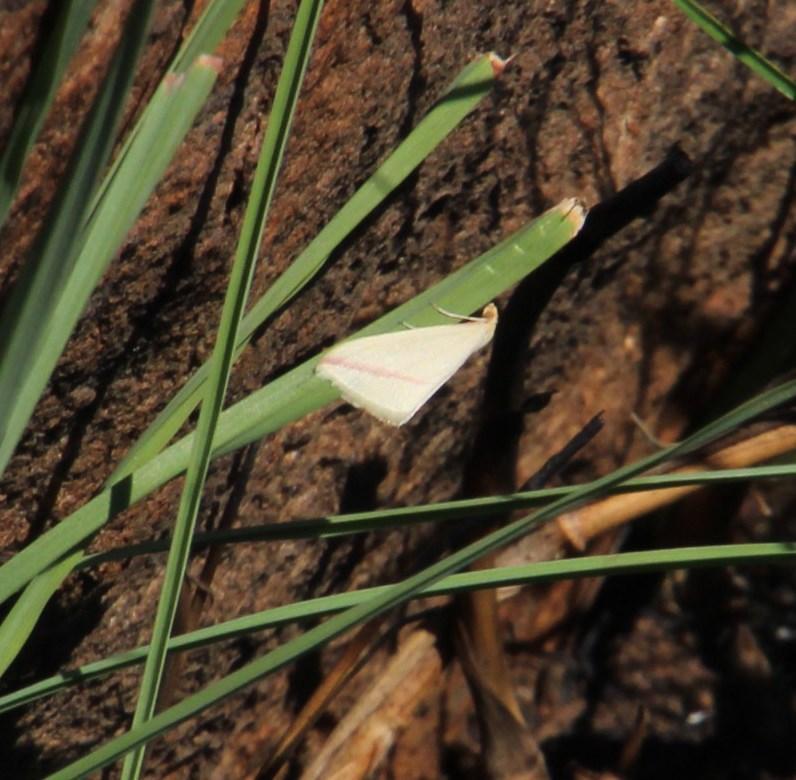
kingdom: Animalia
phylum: Arthropoda
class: Insecta
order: Lepidoptera
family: Geometridae
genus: Rhodometra
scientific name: Rhodometra sacraria
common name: Vestal
